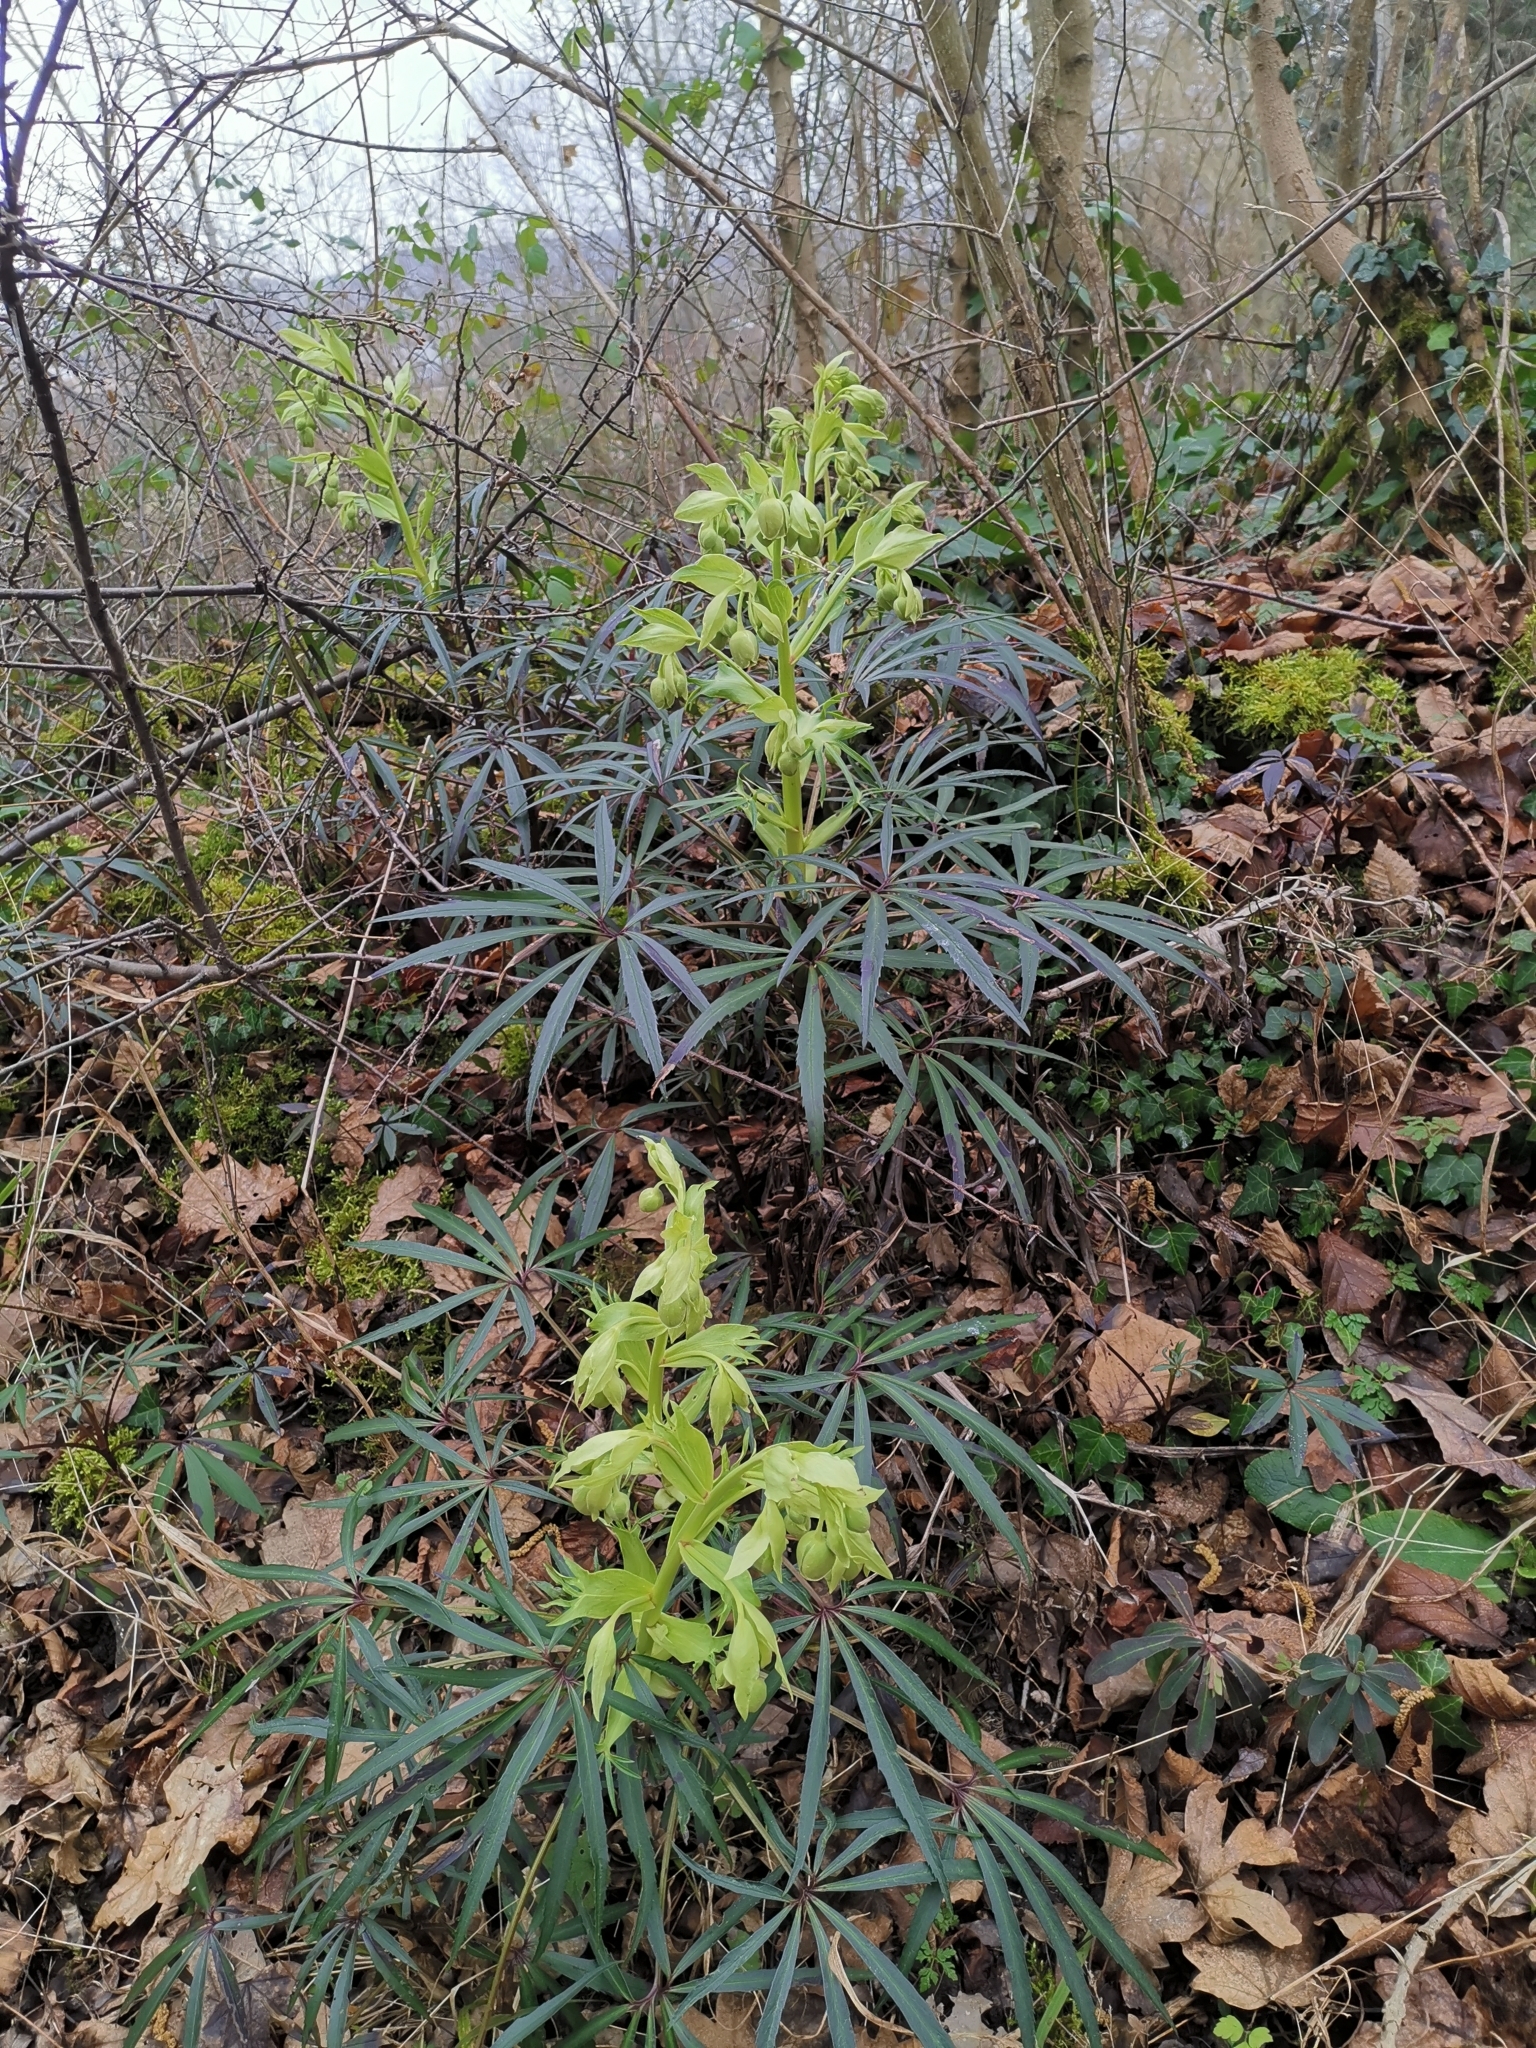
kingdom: Plantae
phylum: Tracheophyta
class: Magnoliopsida
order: Ranunculales
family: Ranunculaceae
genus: Helleborus
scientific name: Helleborus foetidus
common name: Stinking hellebore
